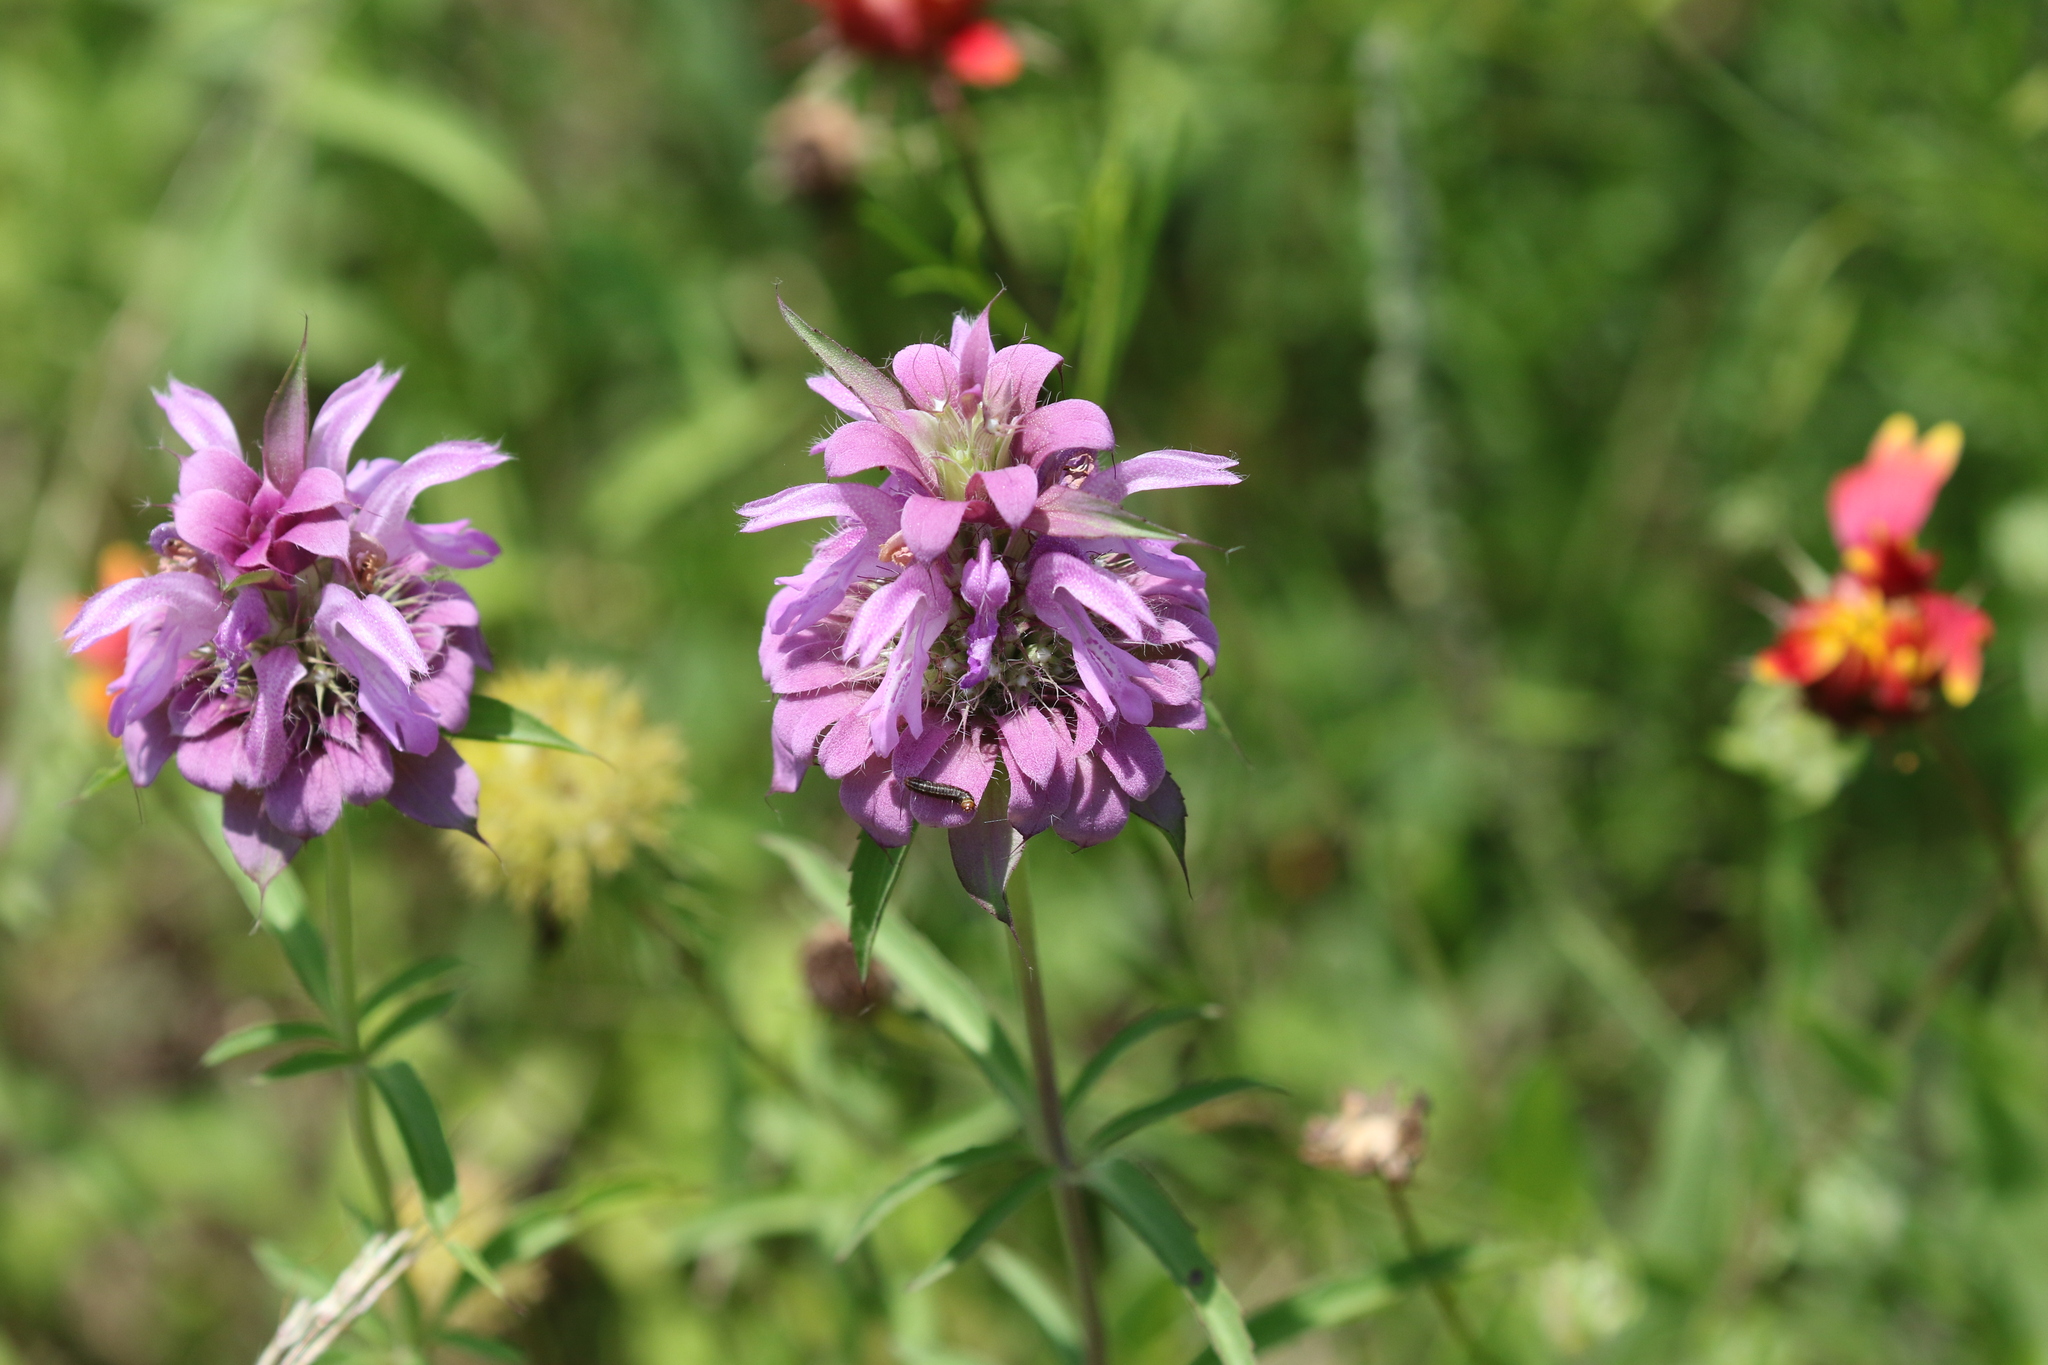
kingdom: Plantae
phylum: Tracheophyta
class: Magnoliopsida
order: Lamiales
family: Lamiaceae
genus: Monarda
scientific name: Monarda citriodora
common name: Lemon beebalm
